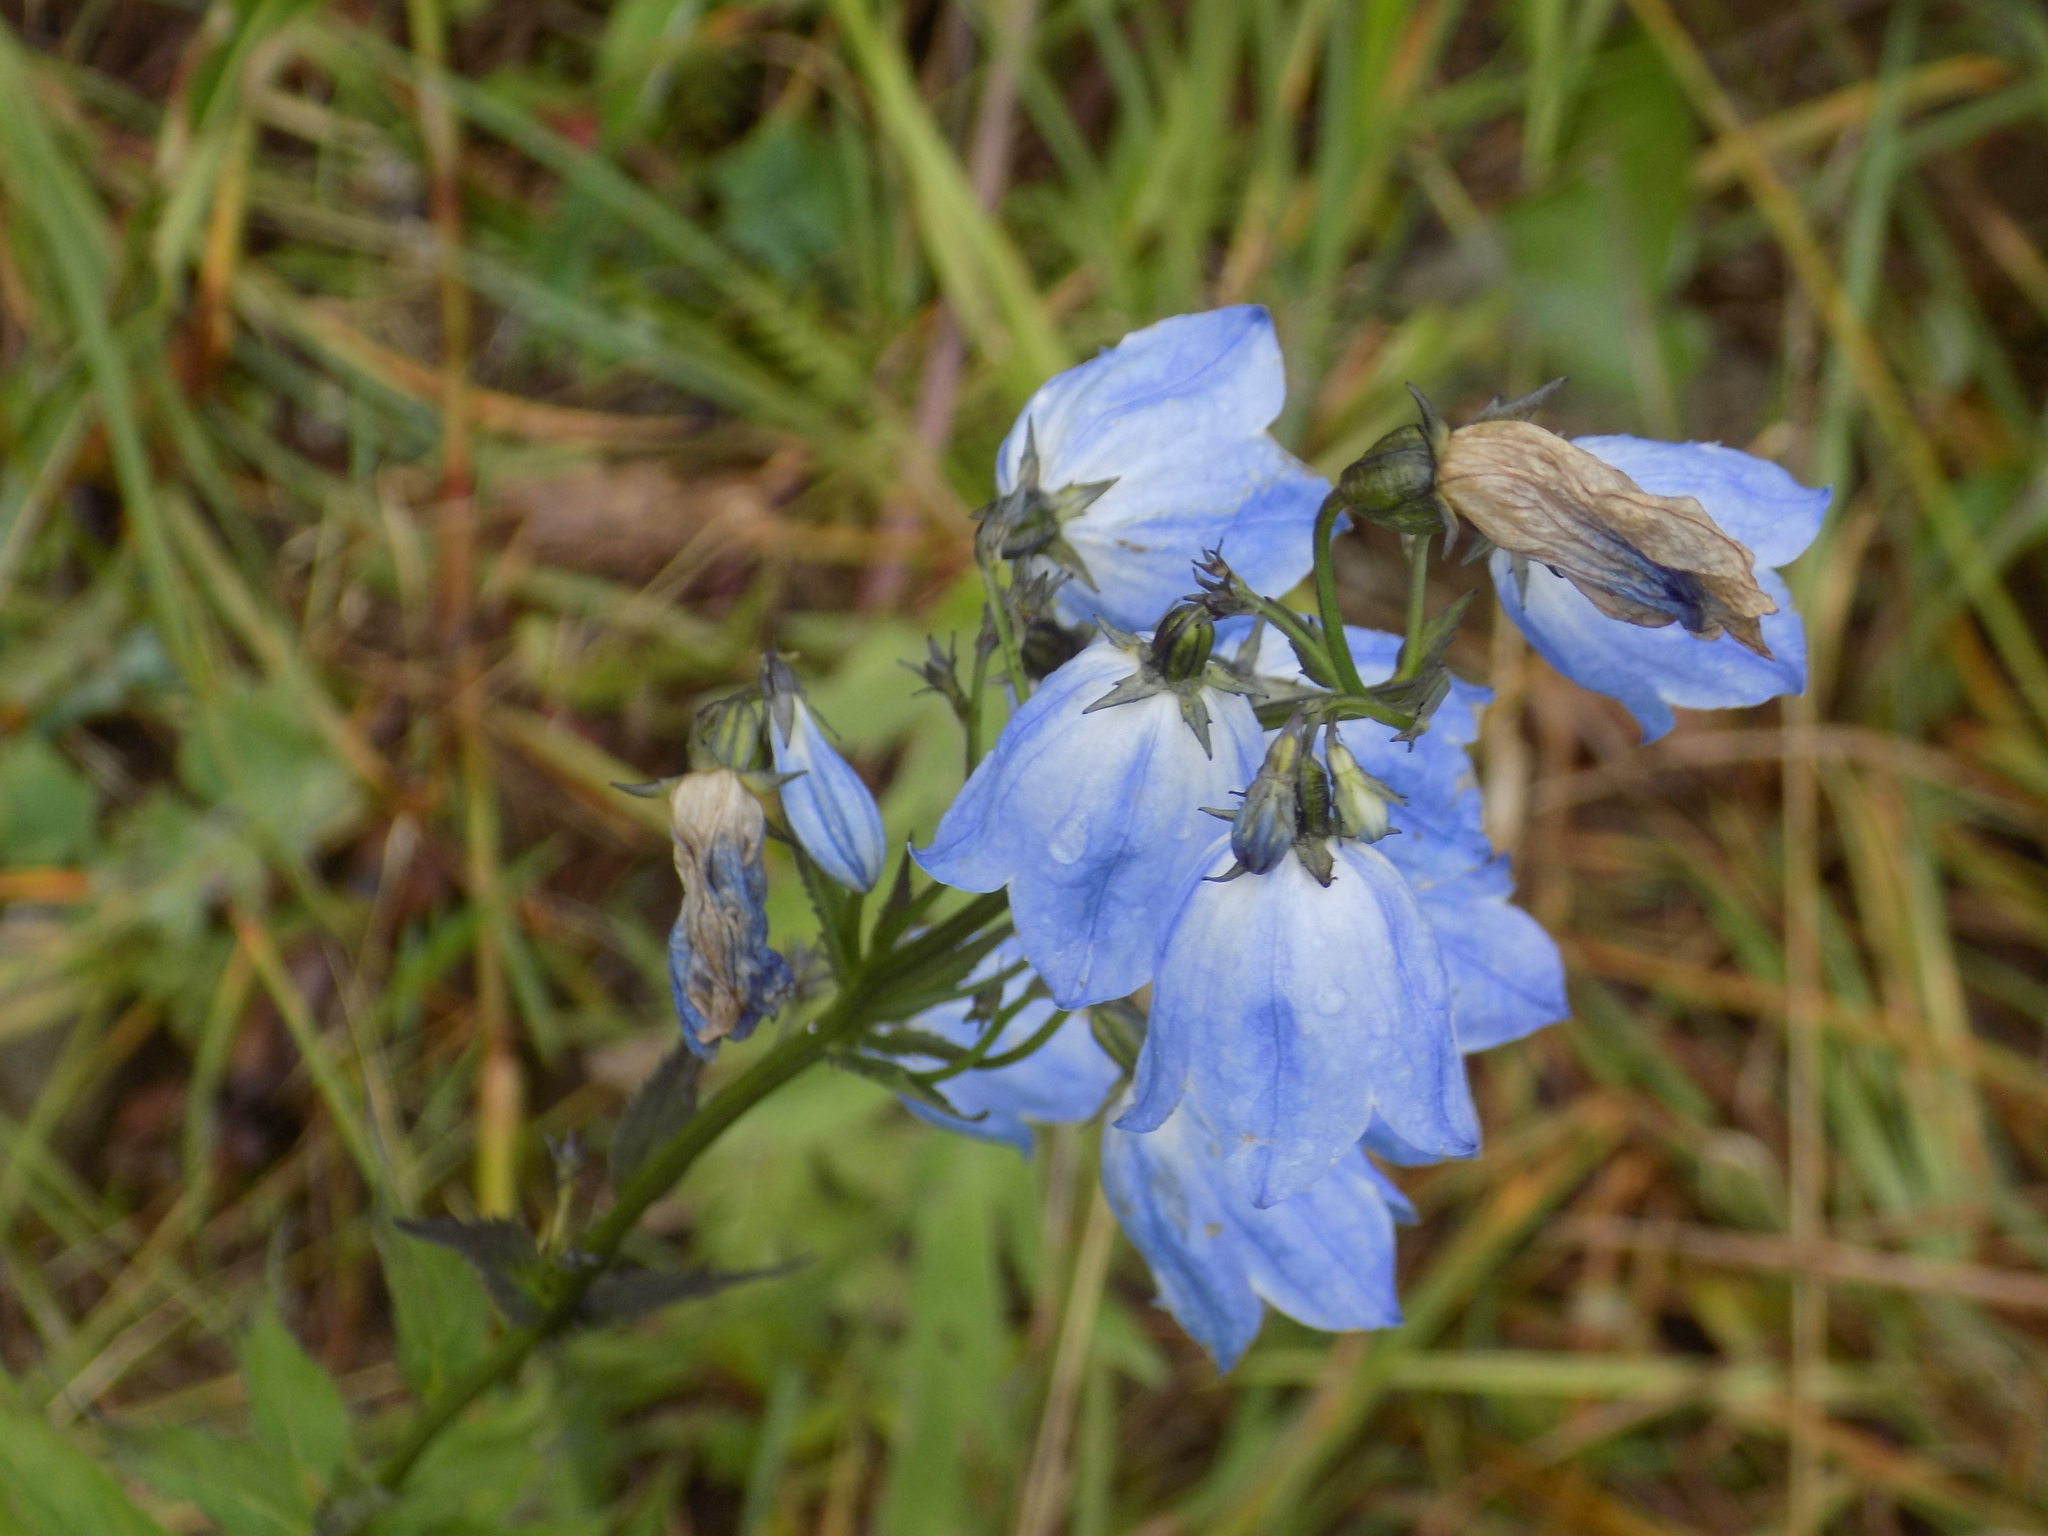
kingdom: Plantae
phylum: Tracheophyta
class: Magnoliopsida
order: Asterales
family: Campanulaceae
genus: Adenophora
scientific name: Adenophora liliifolia
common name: Lilyleaf ladybells
